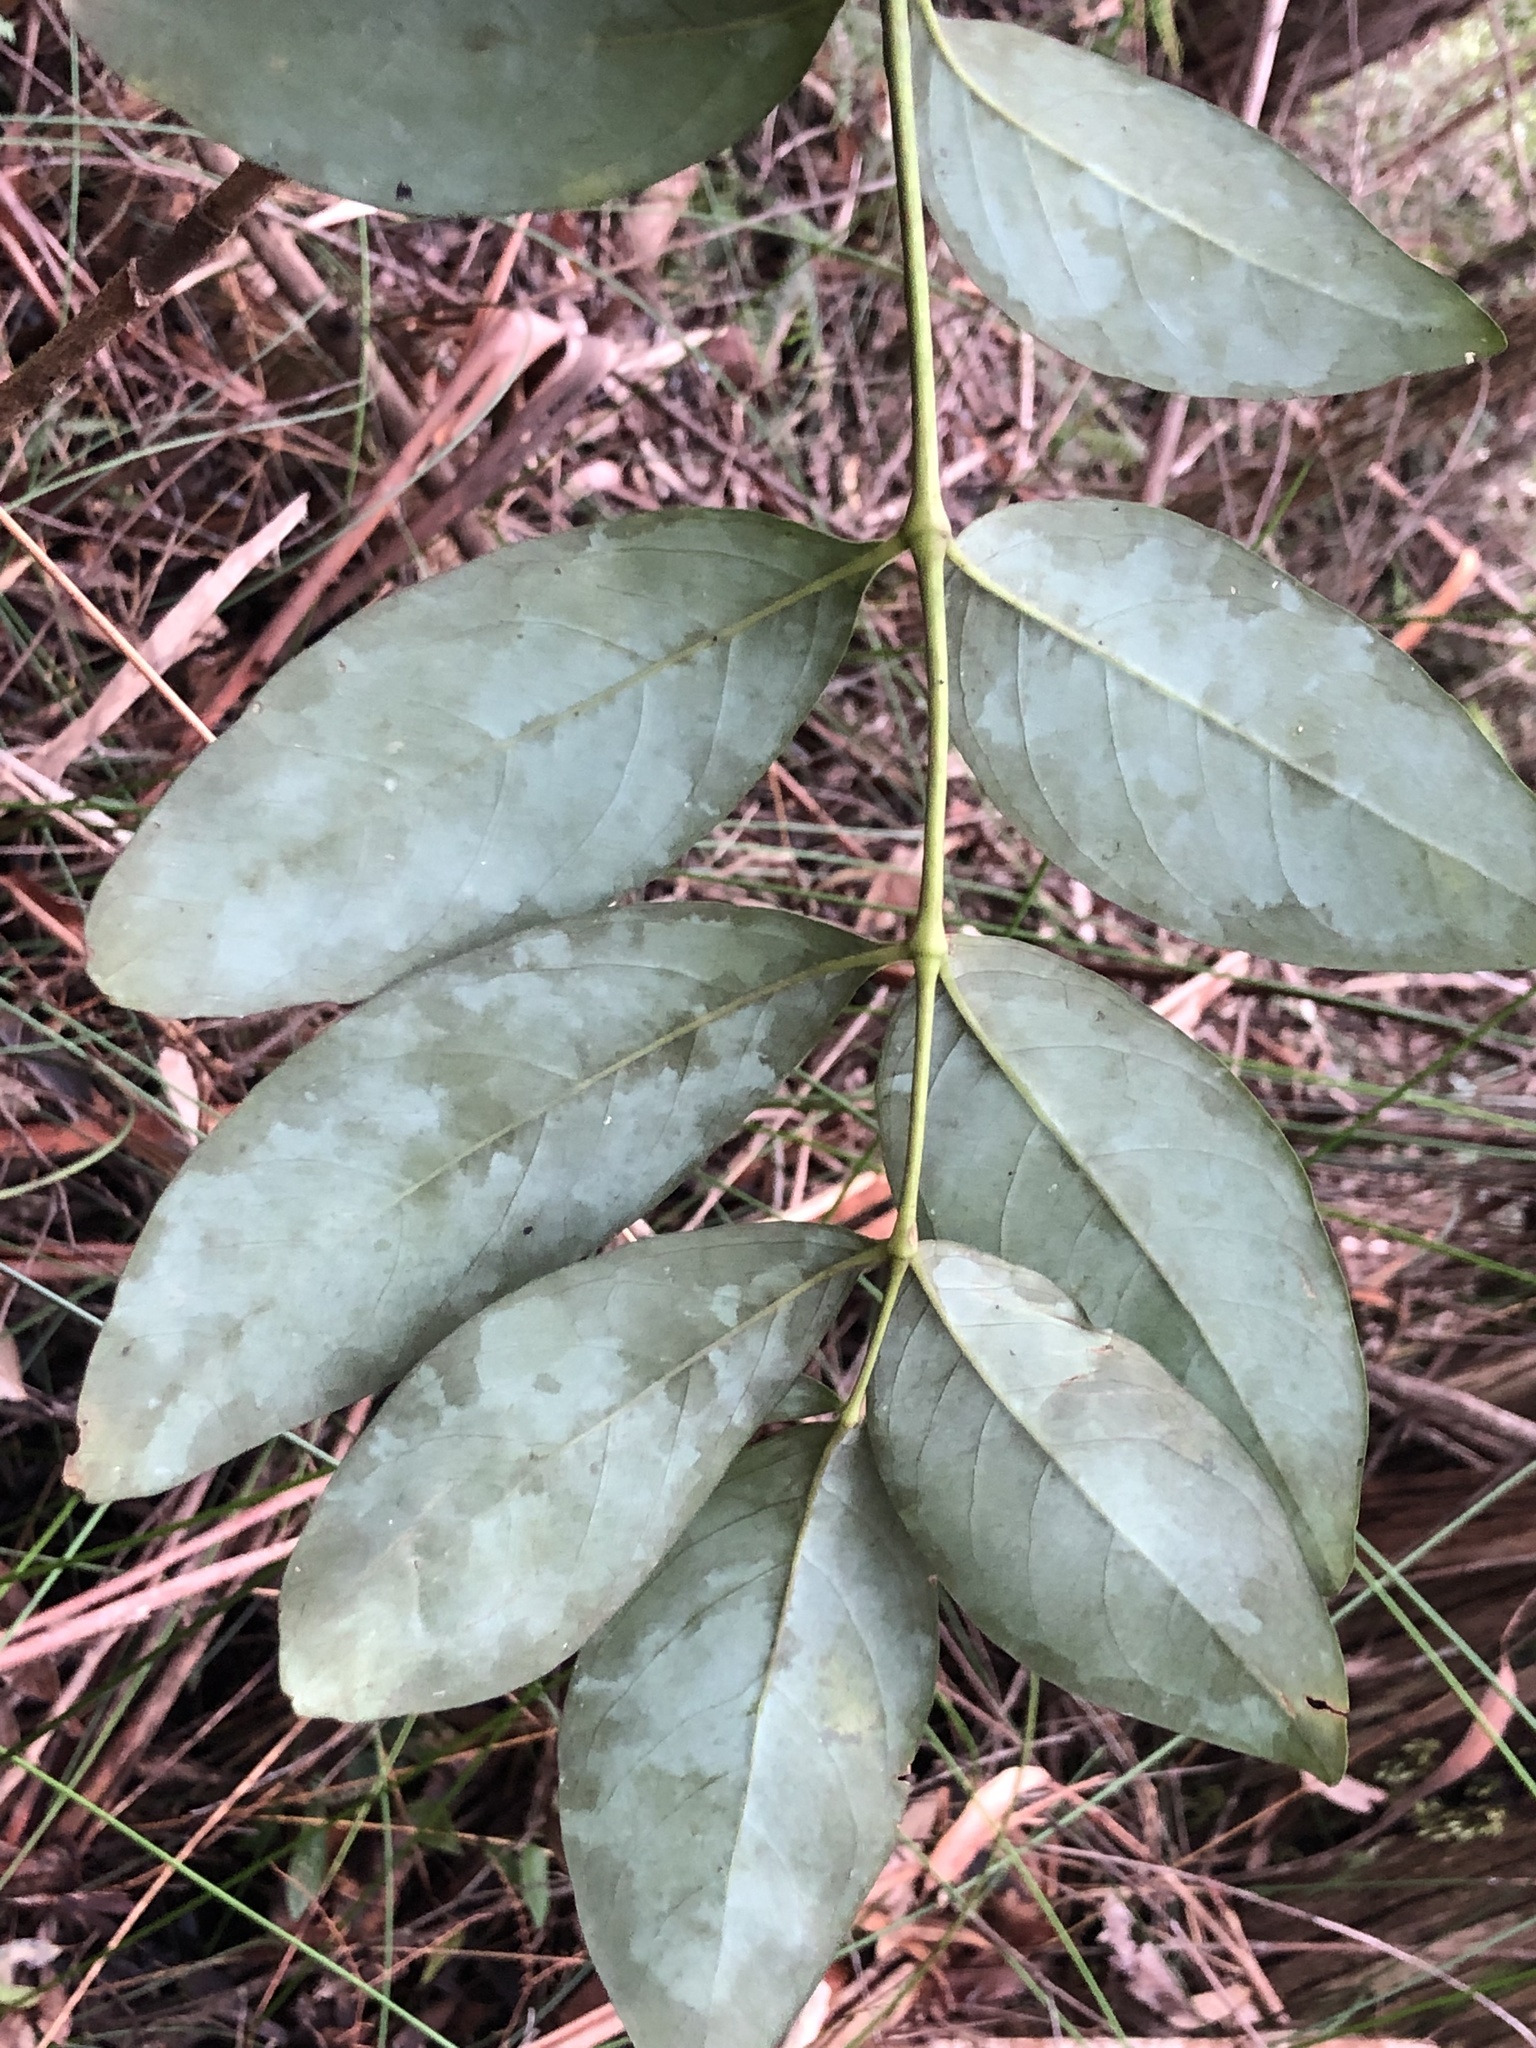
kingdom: Plantae
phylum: Tracheophyta
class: Magnoliopsida
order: Apiales
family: Araliaceae
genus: Polyscias
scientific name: Polyscias sambucifolia
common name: Elderberry-ash
